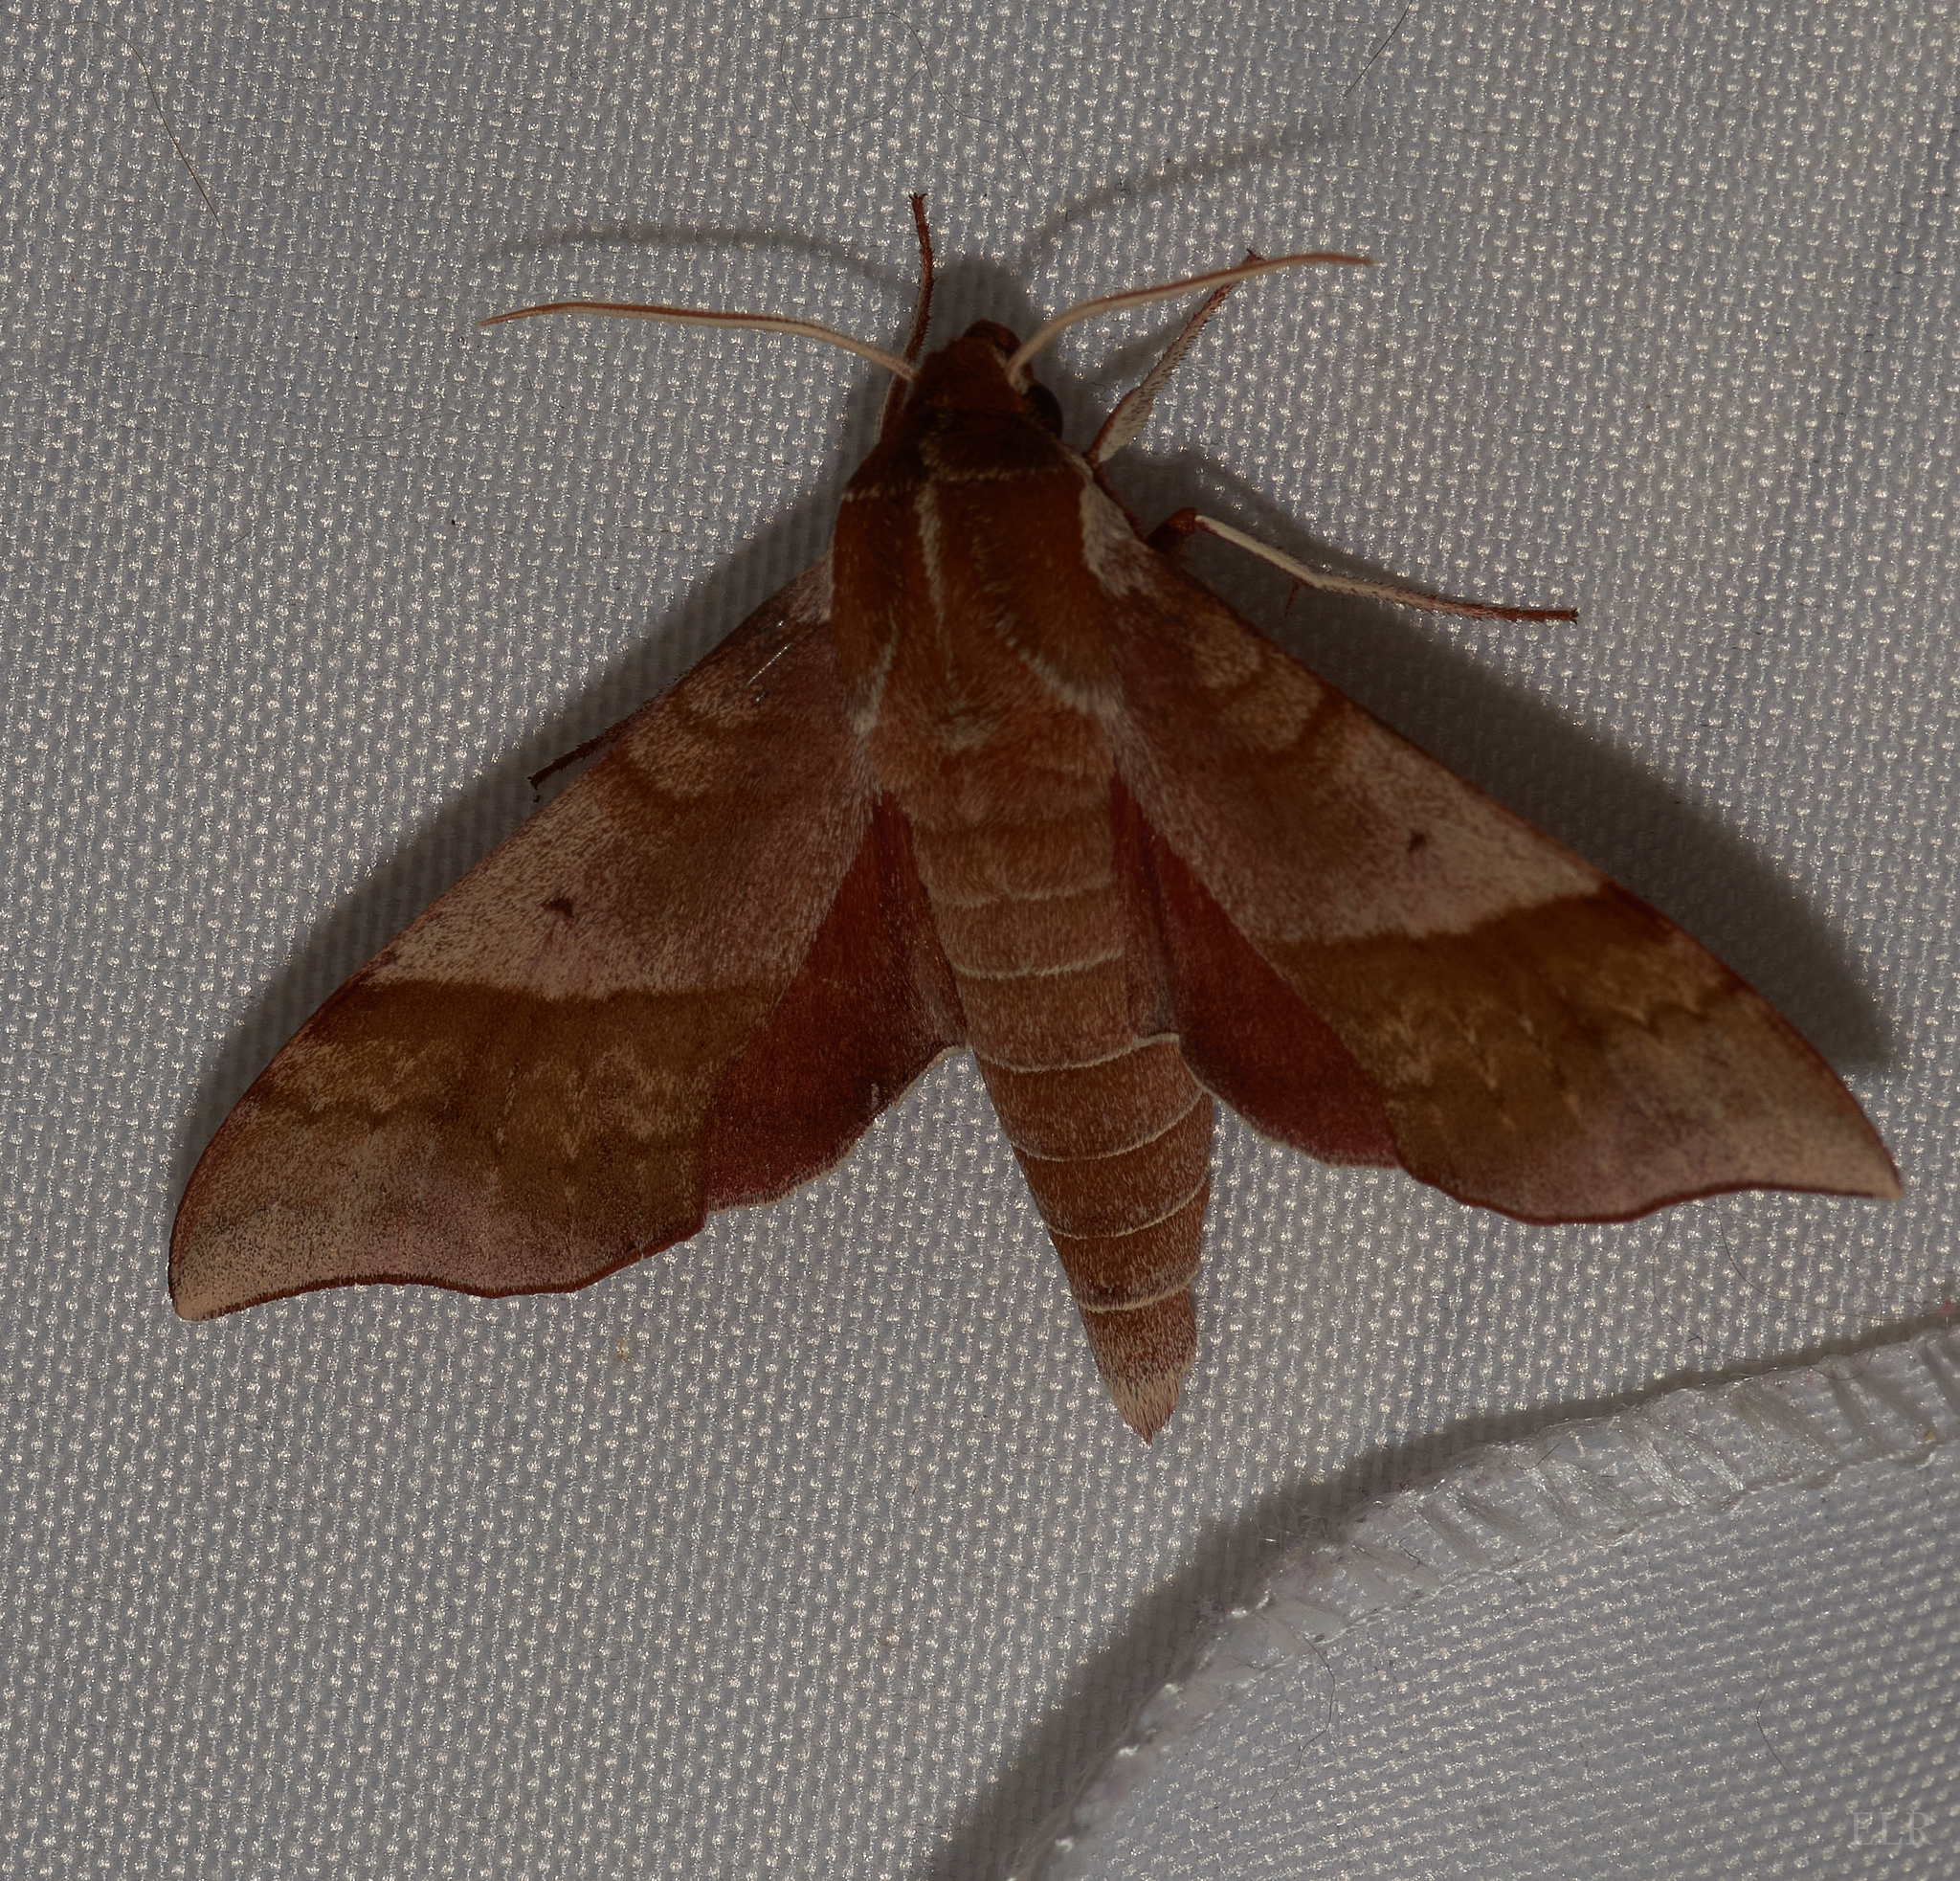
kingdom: Animalia
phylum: Arthropoda
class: Insecta
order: Lepidoptera
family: Sphingidae
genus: Darapsa
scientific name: Darapsa choerilus
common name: Azalea sphinx
